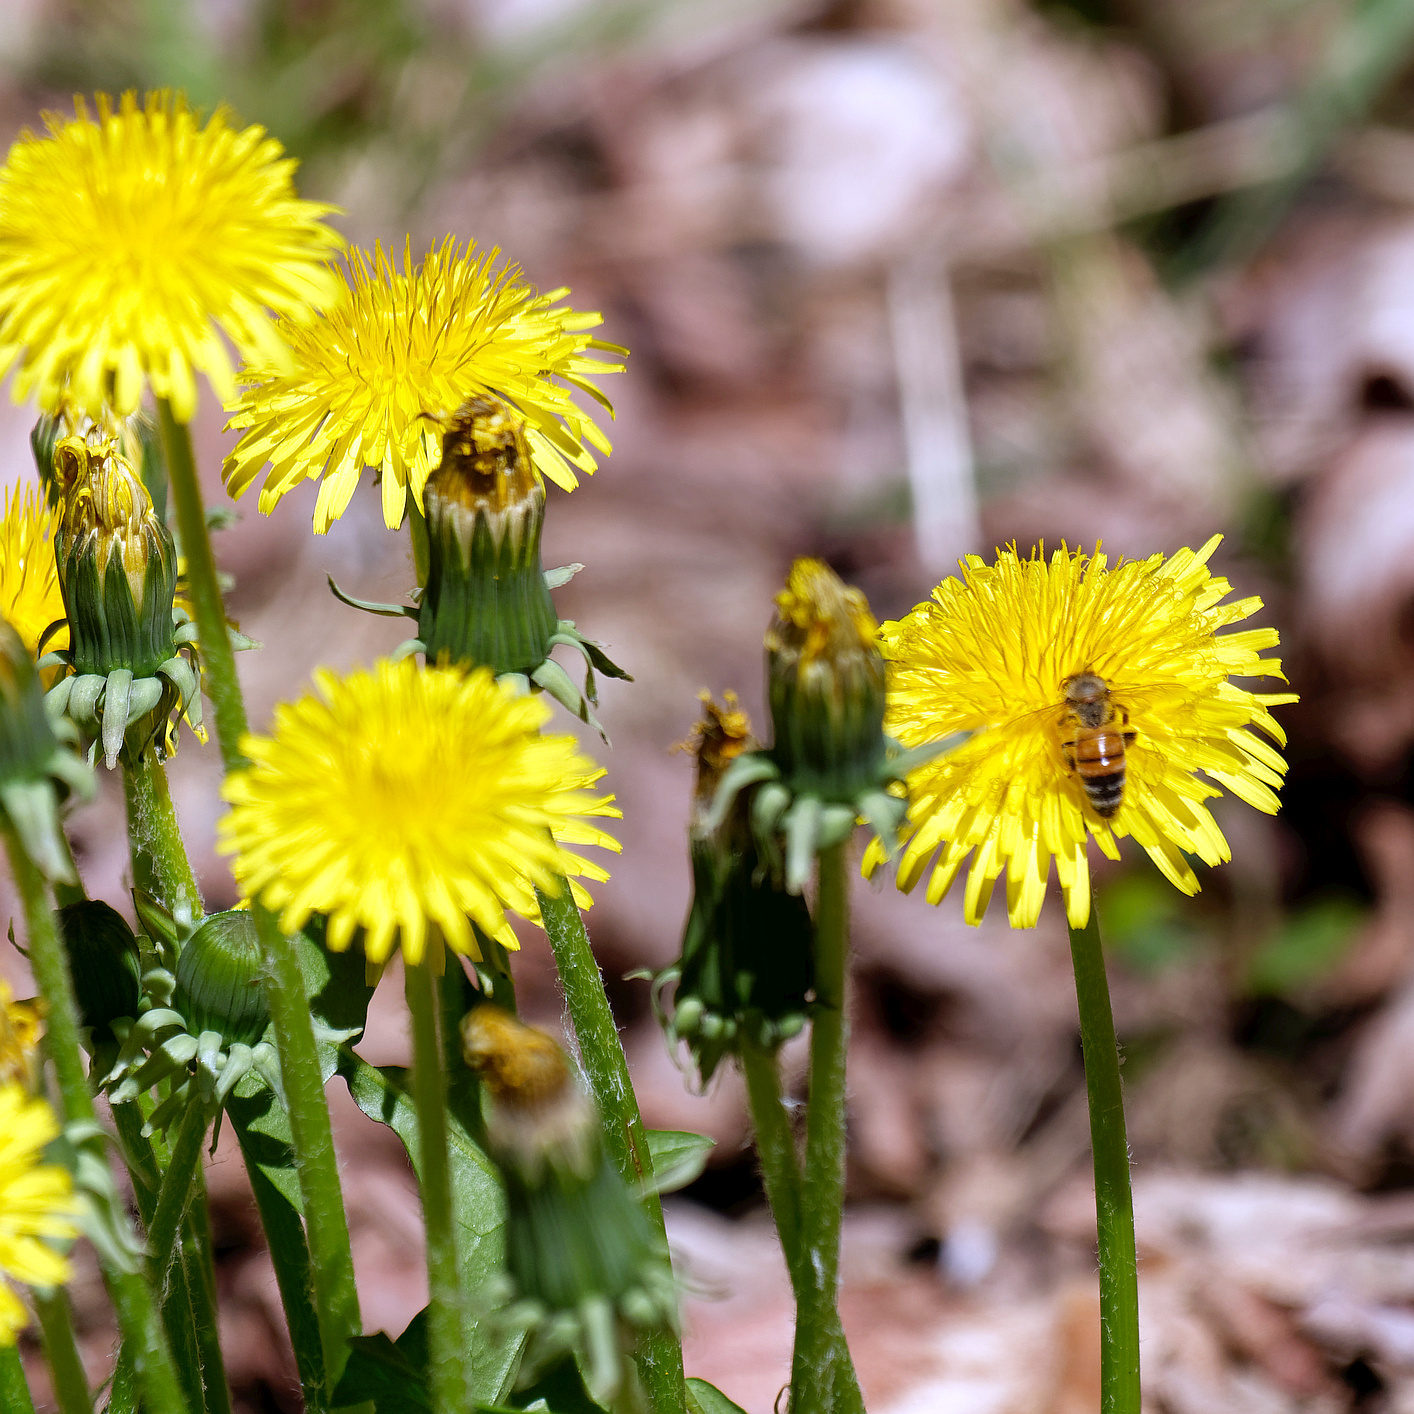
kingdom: Animalia
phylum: Arthropoda
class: Insecta
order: Hymenoptera
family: Apidae
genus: Apis
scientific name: Apis mellifera
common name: Honey bee
